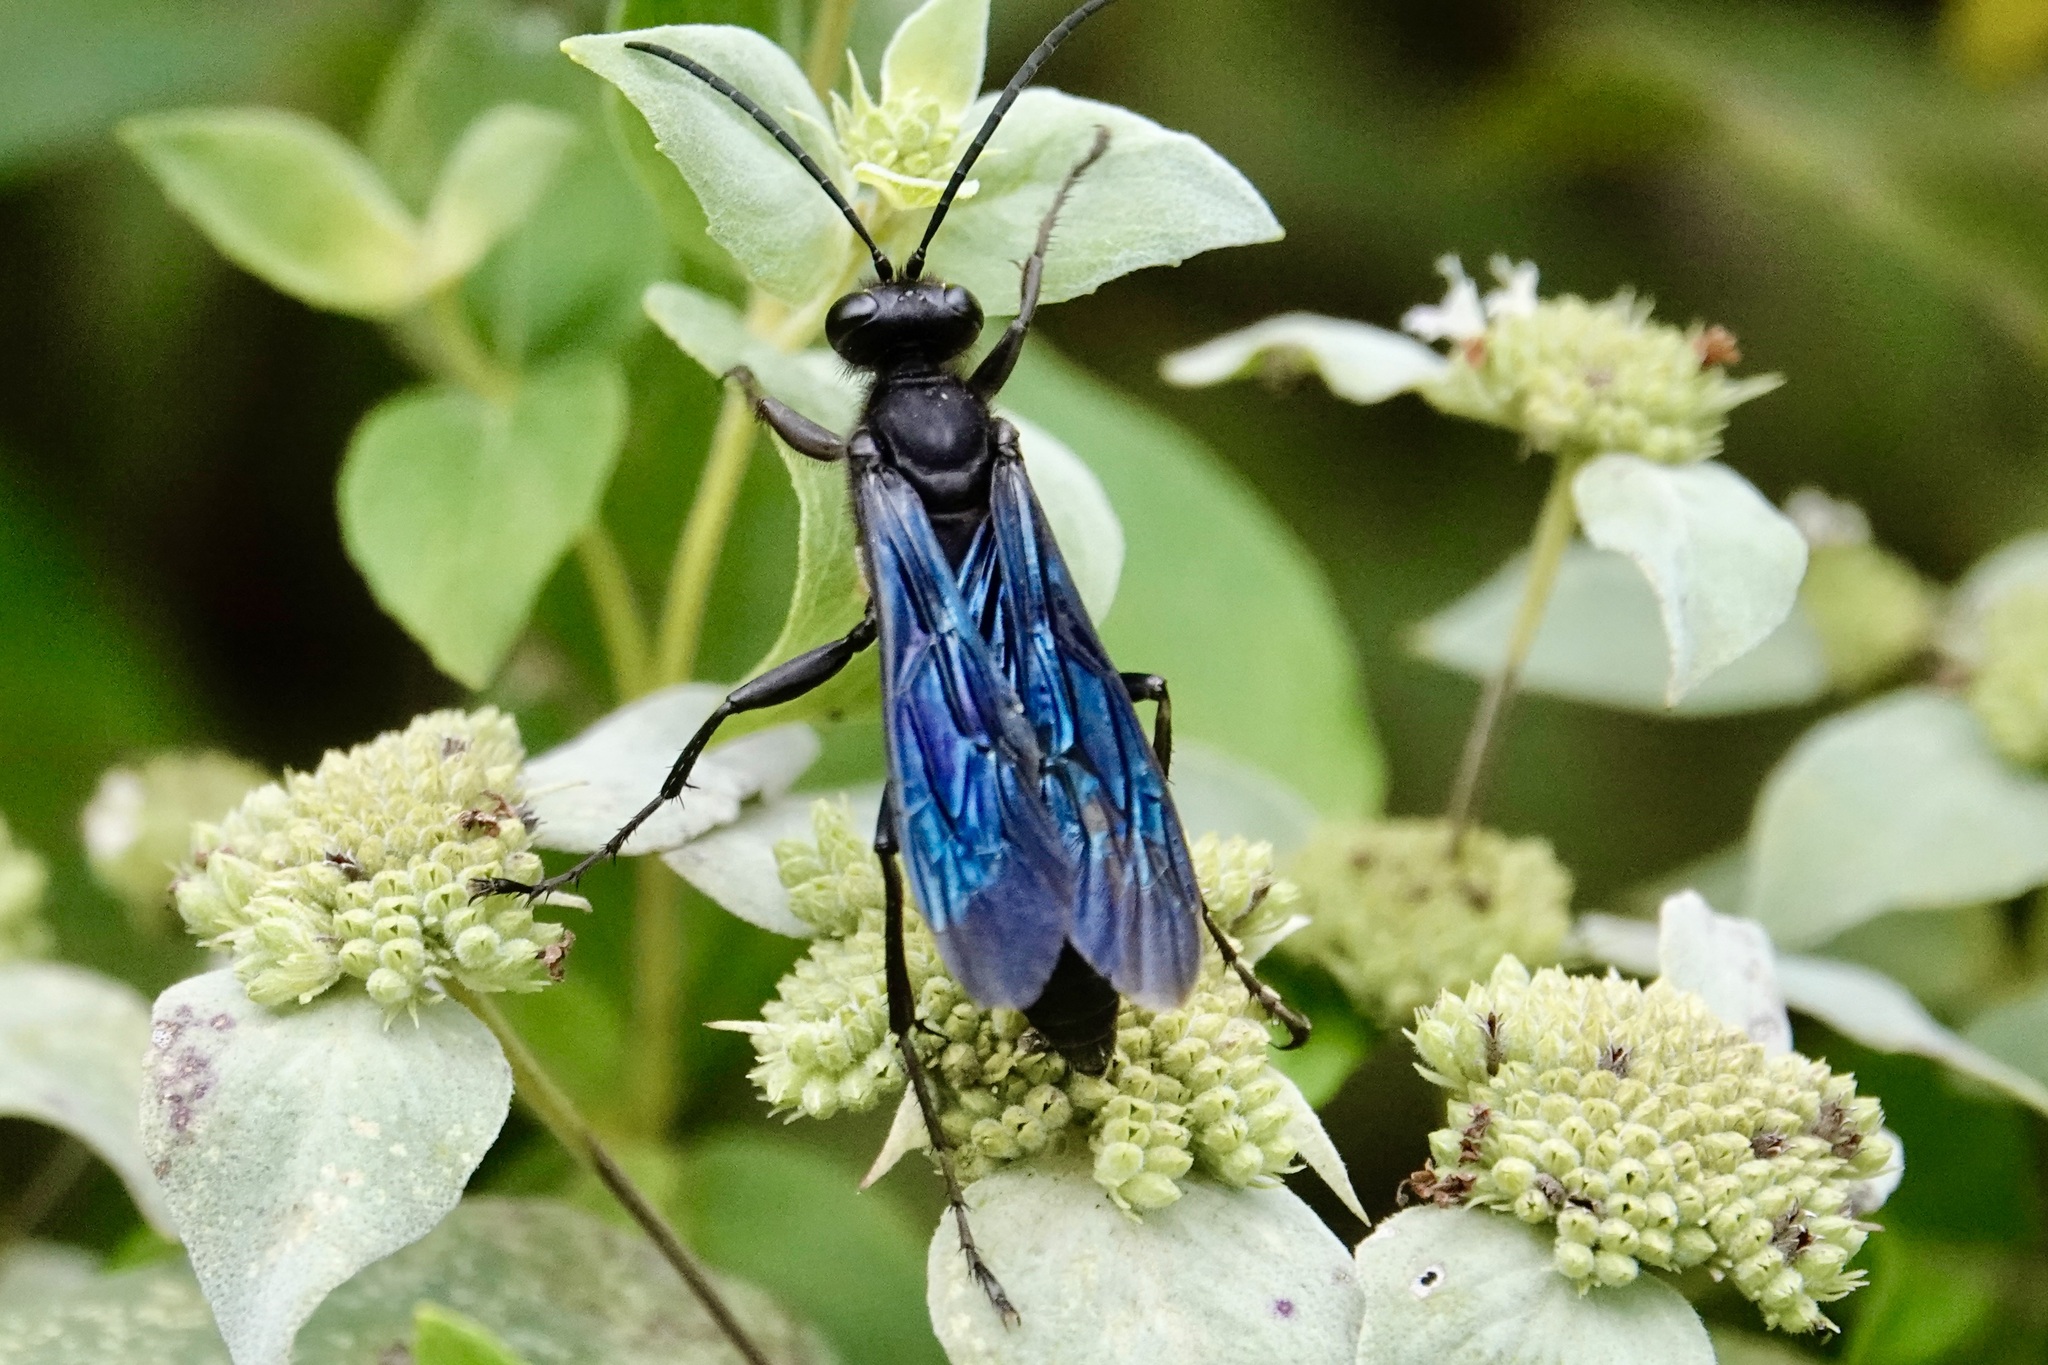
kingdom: Animalia
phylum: Arthropoda
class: Insecta
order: Hymenoptera
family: Sphecidae
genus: Sphex
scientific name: Sphex pensylvanicus
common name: Great black digger wasp
